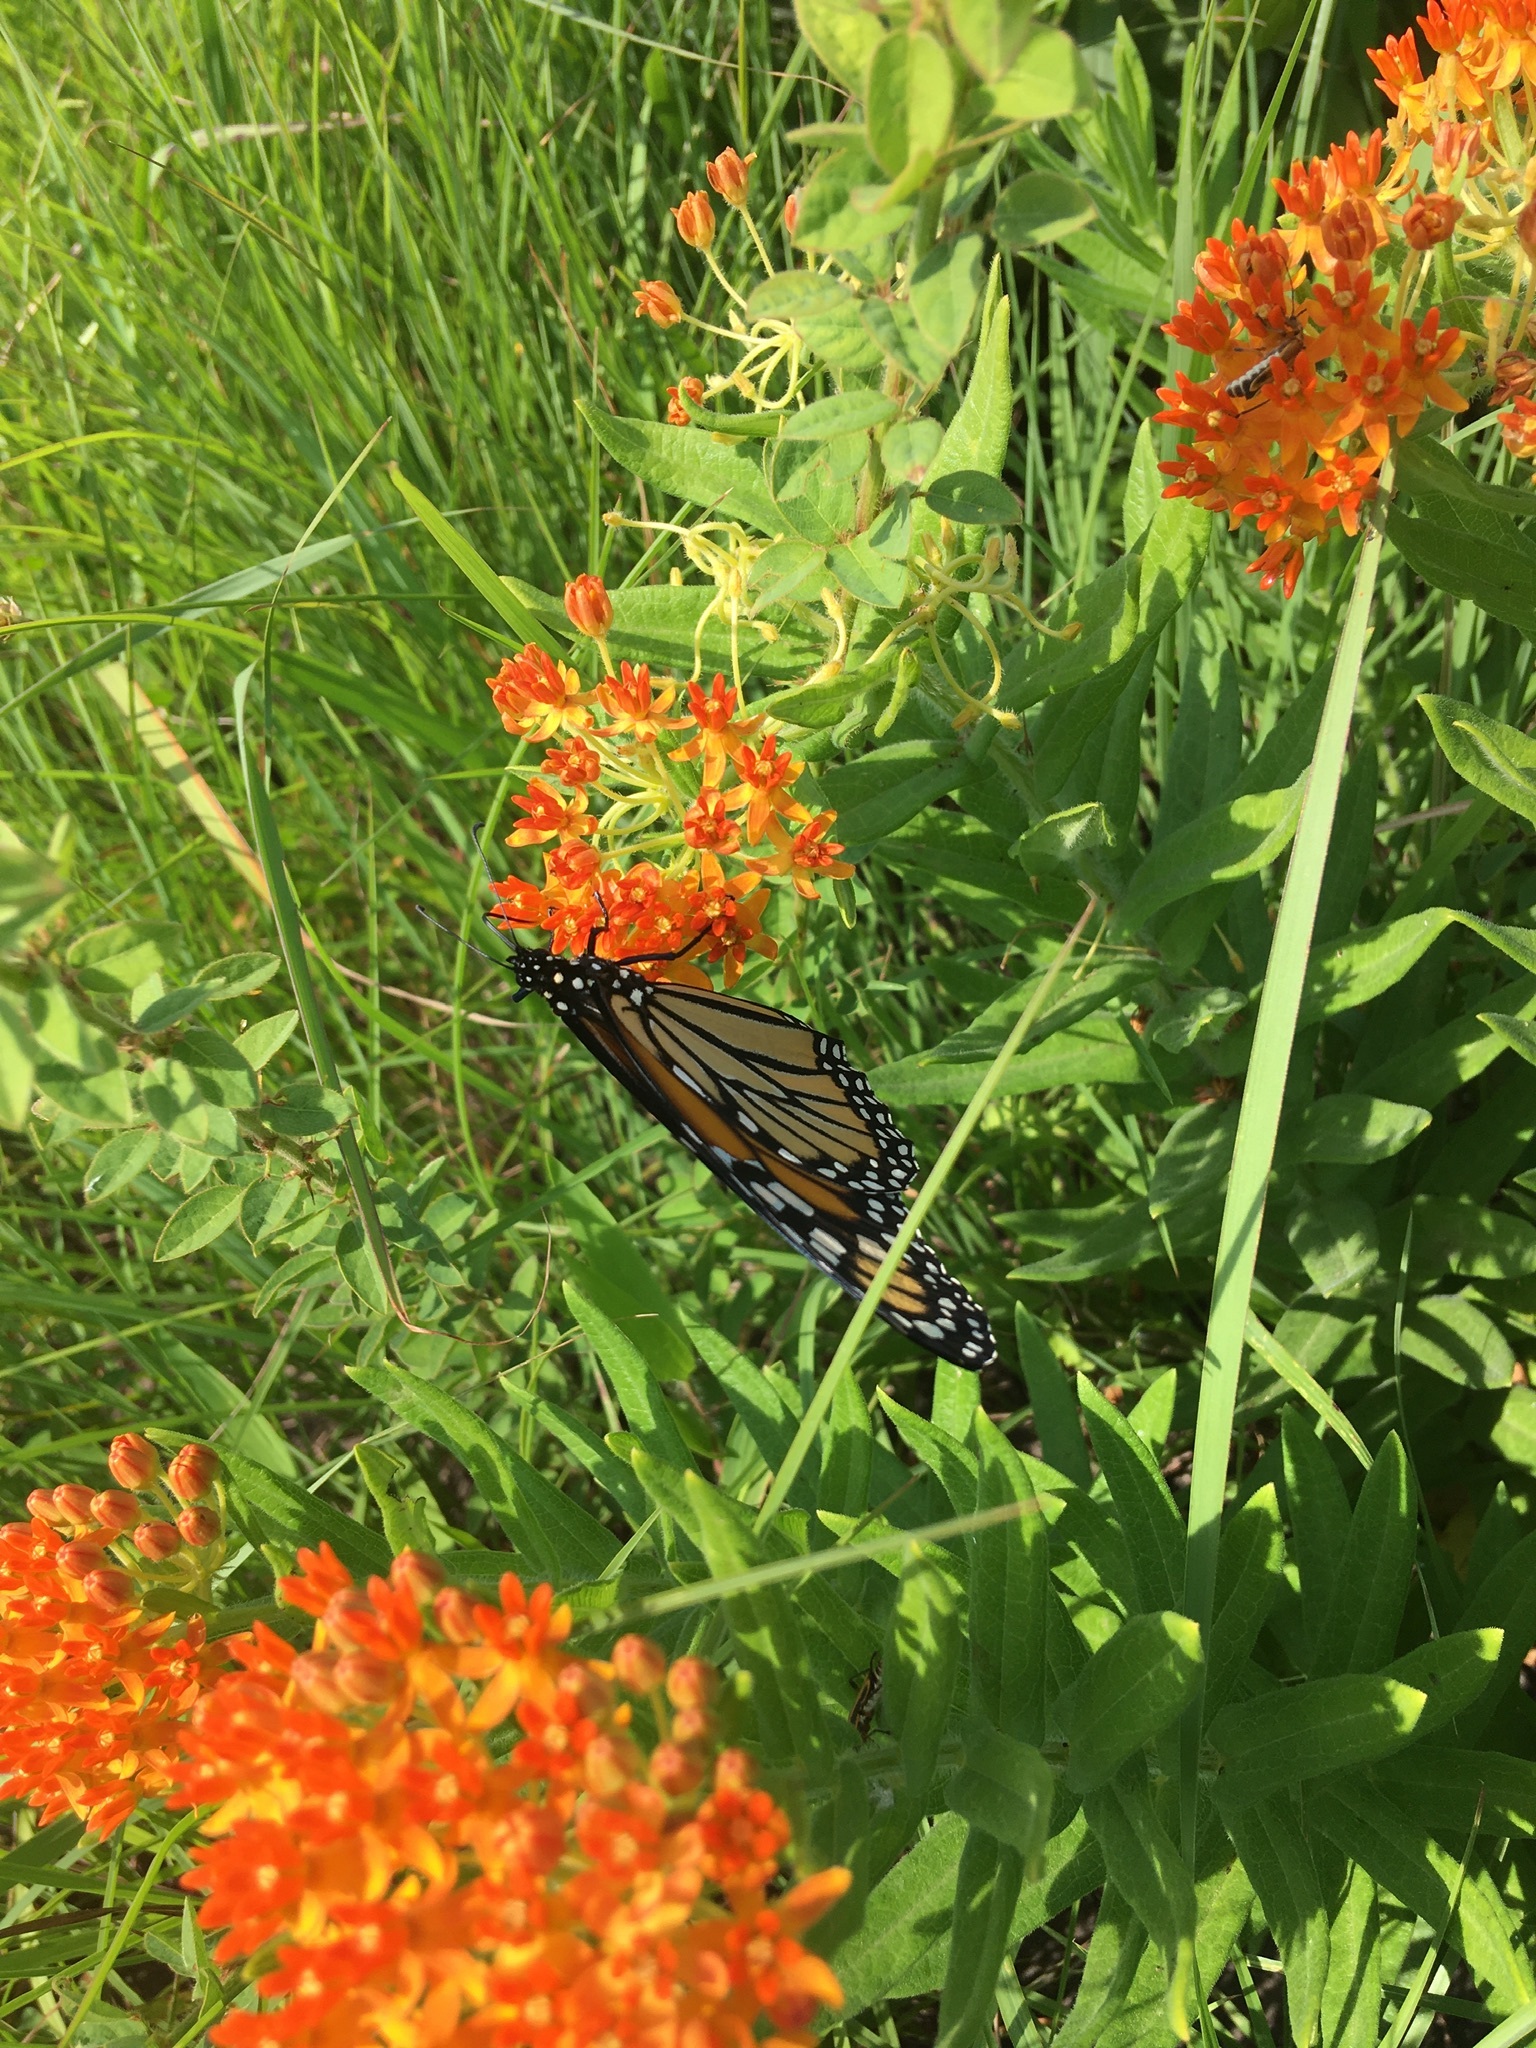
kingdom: Animalia
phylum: Arthropoda
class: Insecta
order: Lepidoptera
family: Nymphalidae
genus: Danaus
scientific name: Danaus plexippus
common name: Monarch
